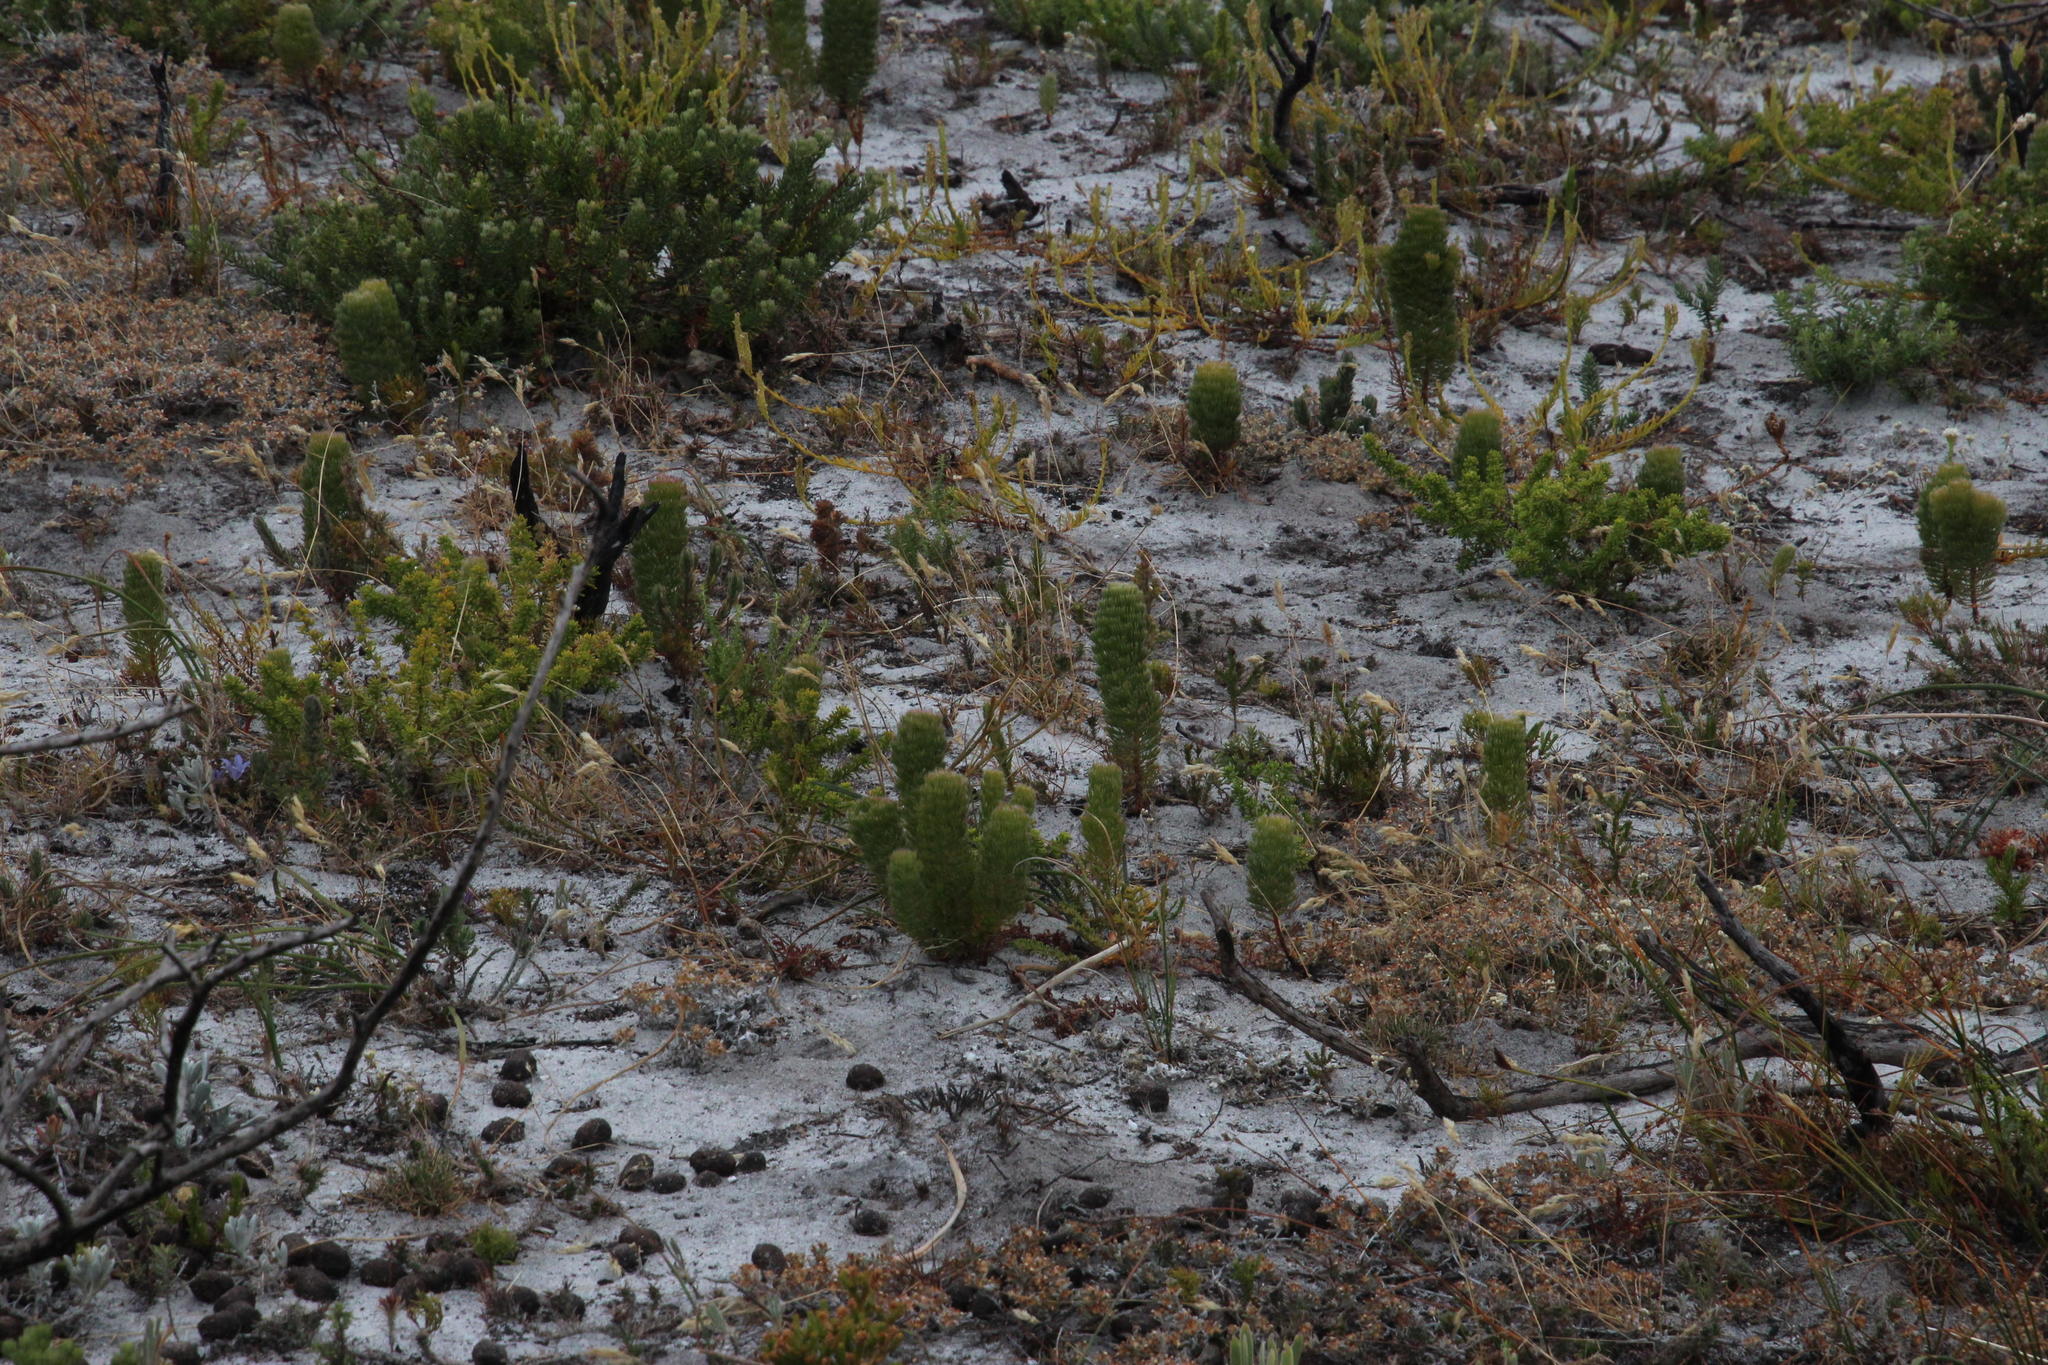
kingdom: Plantae
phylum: Tracheophyta
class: Magnoliopsida
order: Proteales
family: Proteaceae
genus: Serruria
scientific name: Serruria villosa
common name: Golden spiderhead
